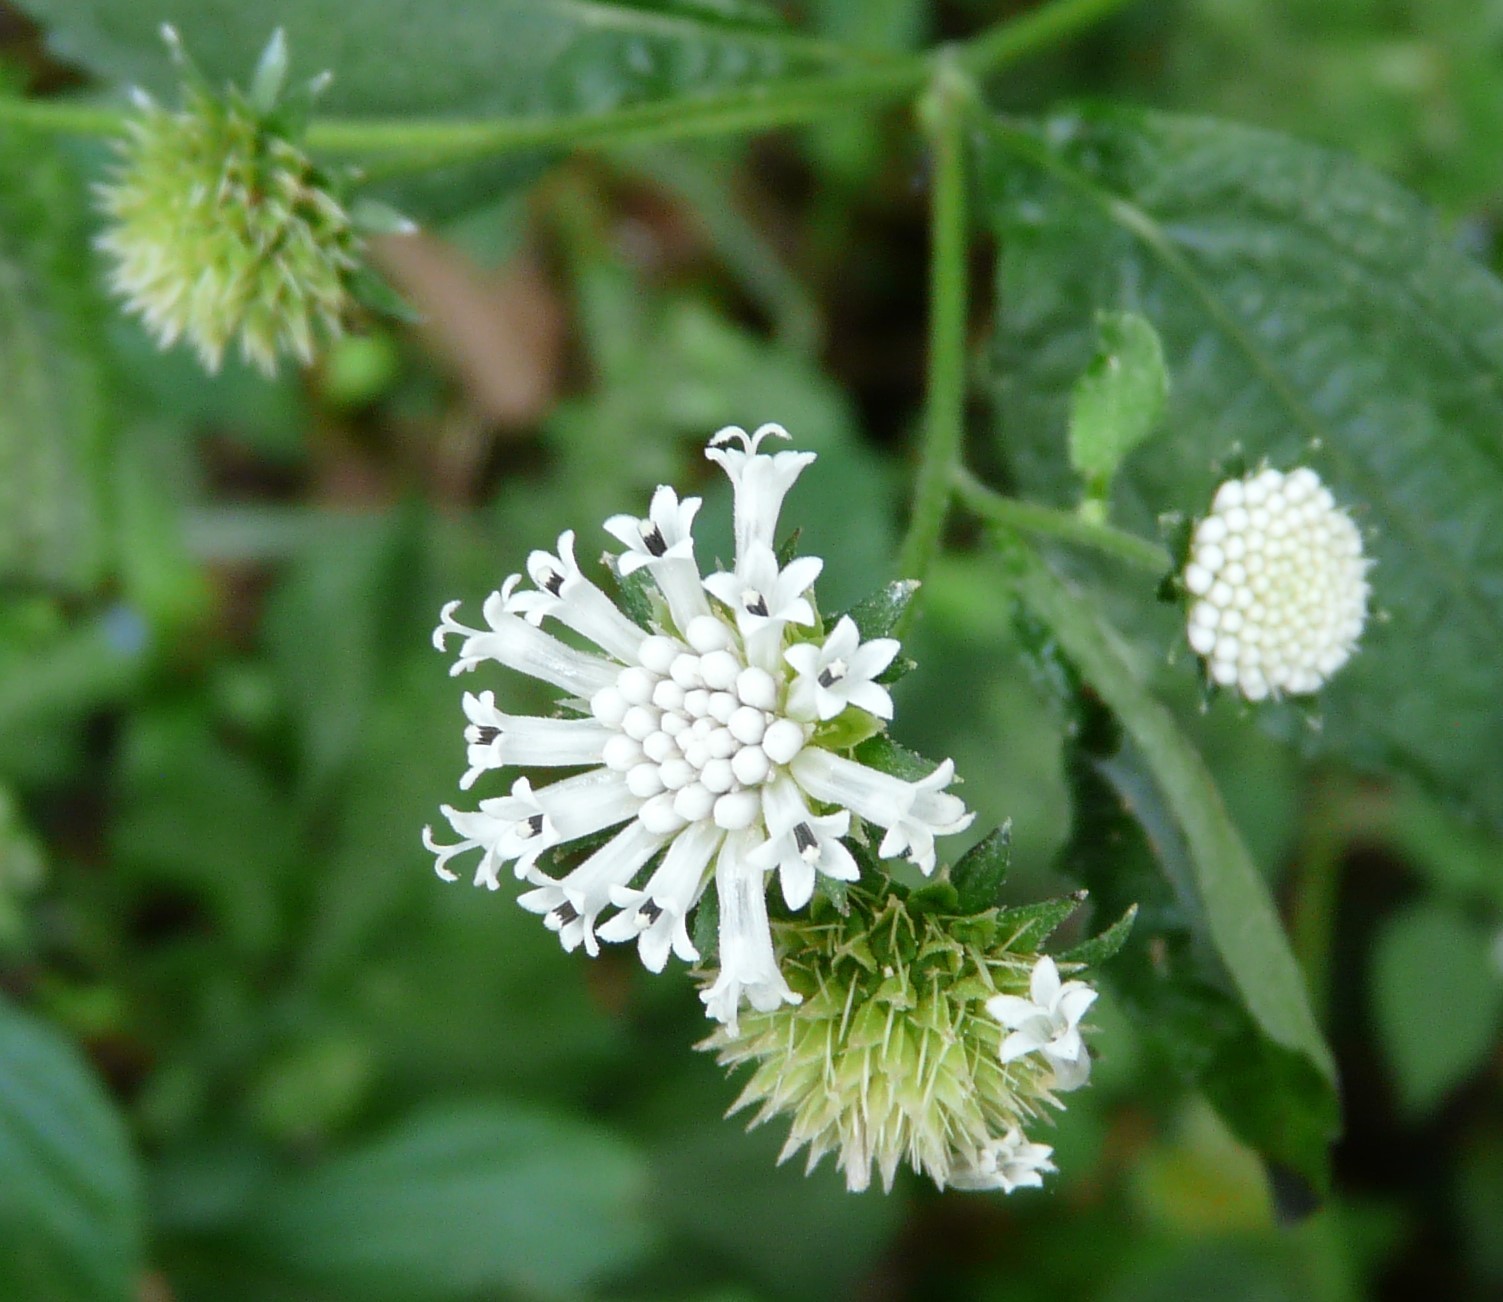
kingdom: Plantae
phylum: Tracheophyta
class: Magnoliopsida
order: Asterales
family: Asteraceae
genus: Melanthera
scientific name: Melanthera nivea
